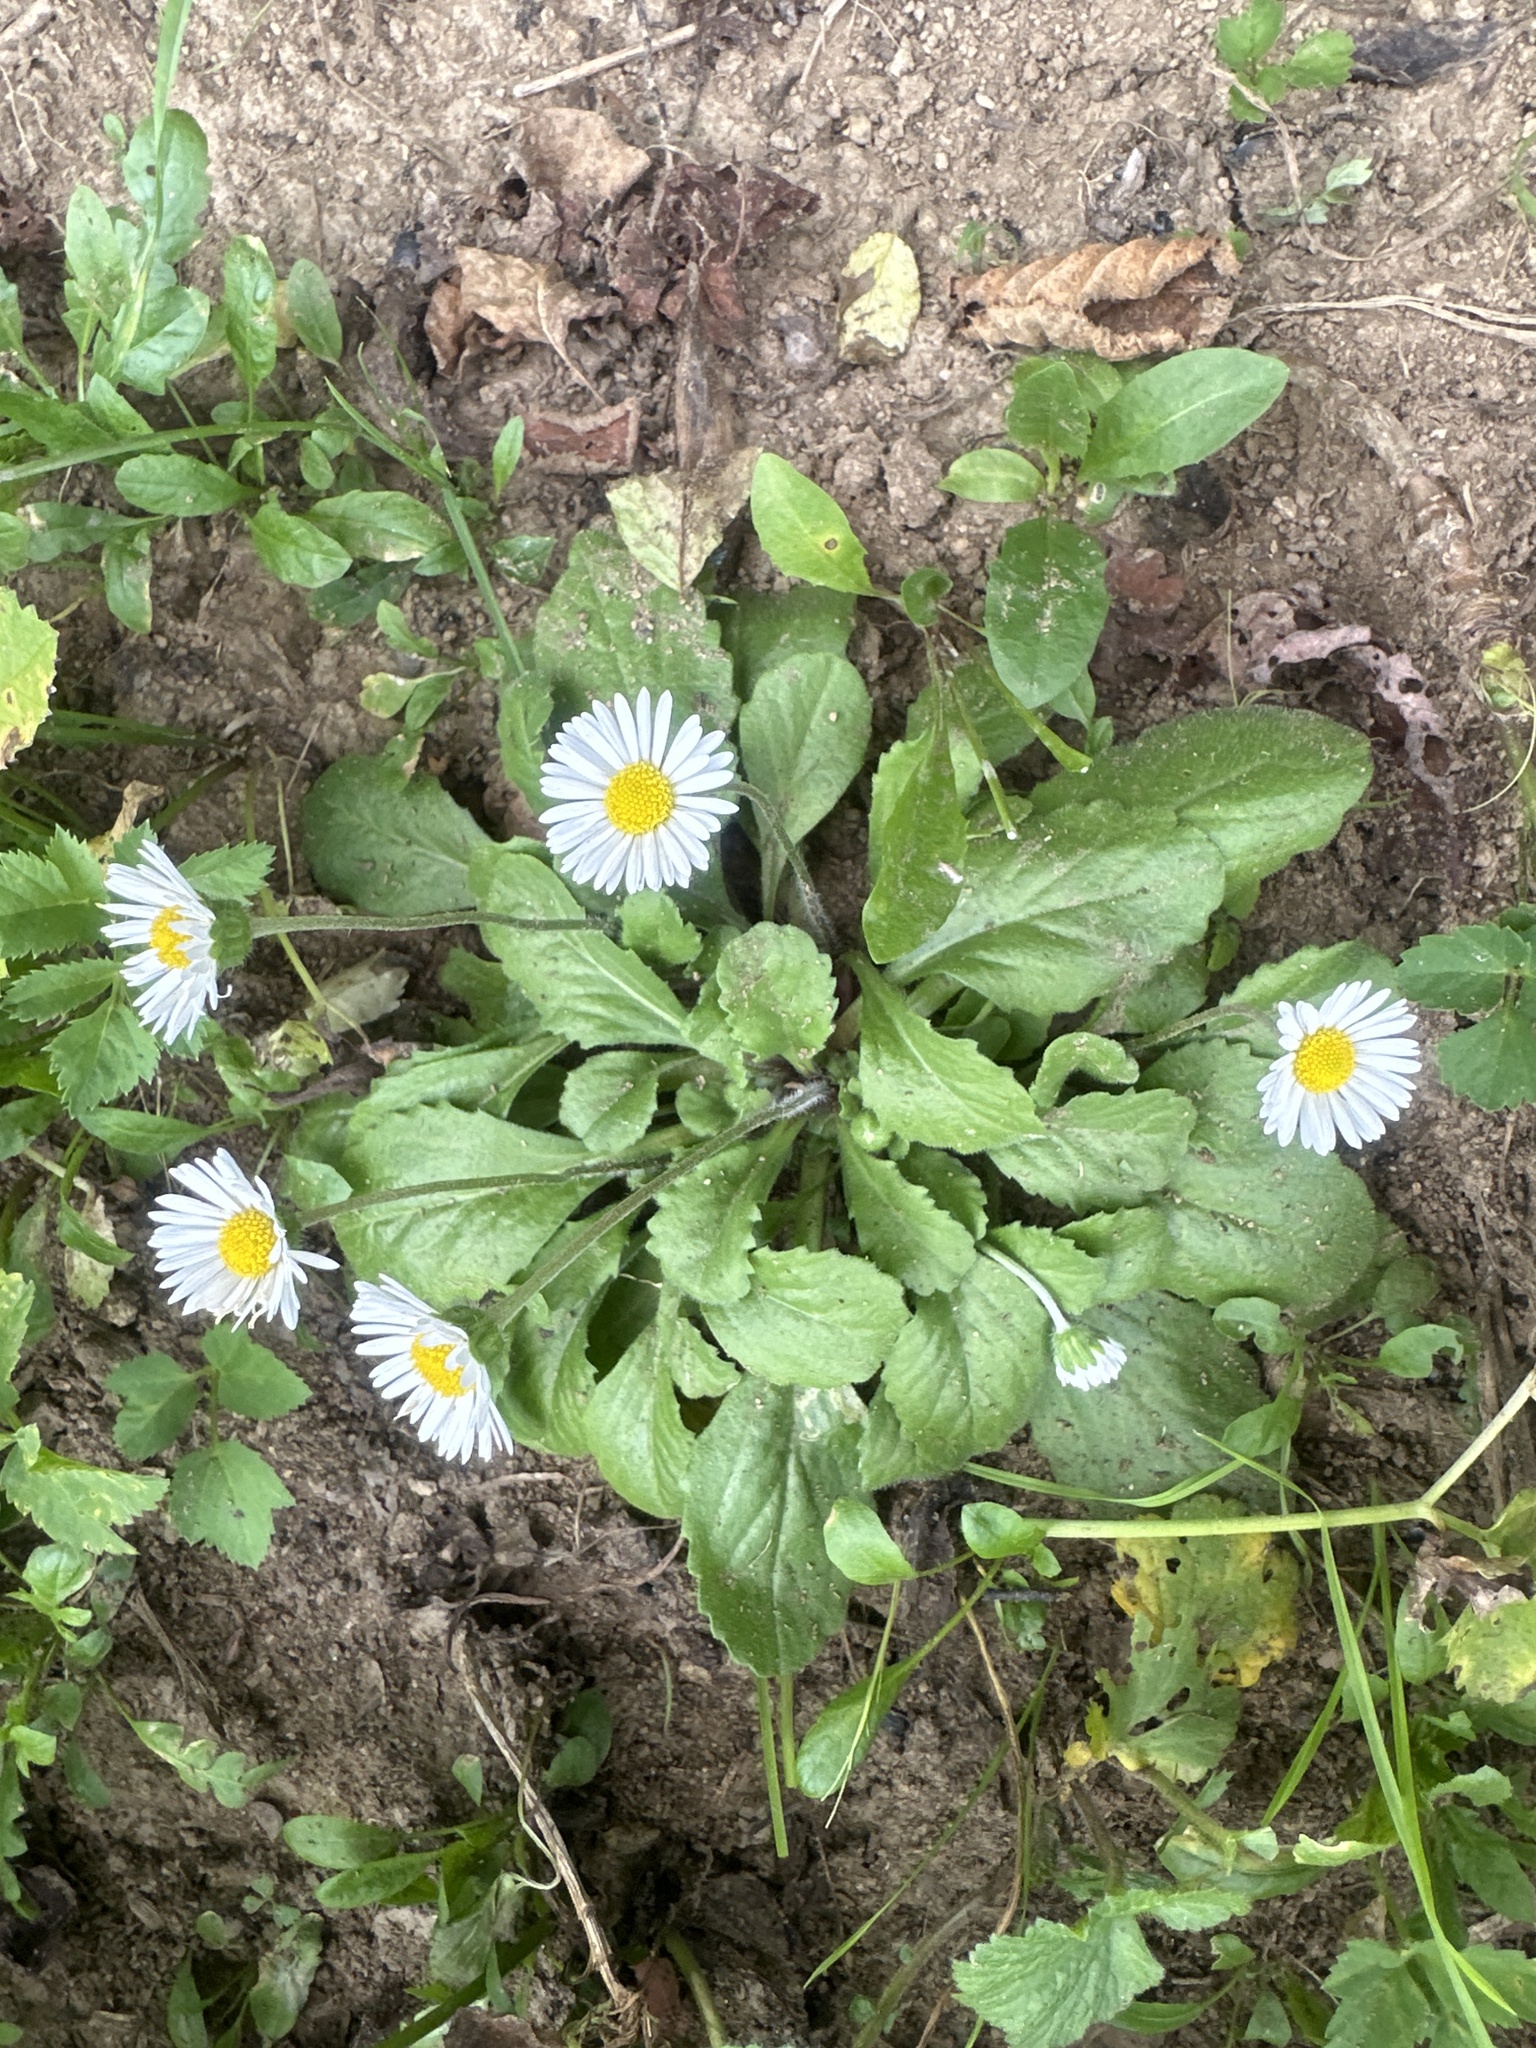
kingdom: Plantae
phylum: Tracheophyta
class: Magnoliopsida
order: Asterales
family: Asteraceae
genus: Bellis
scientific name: Bellis perennis
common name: Lawndaisy
